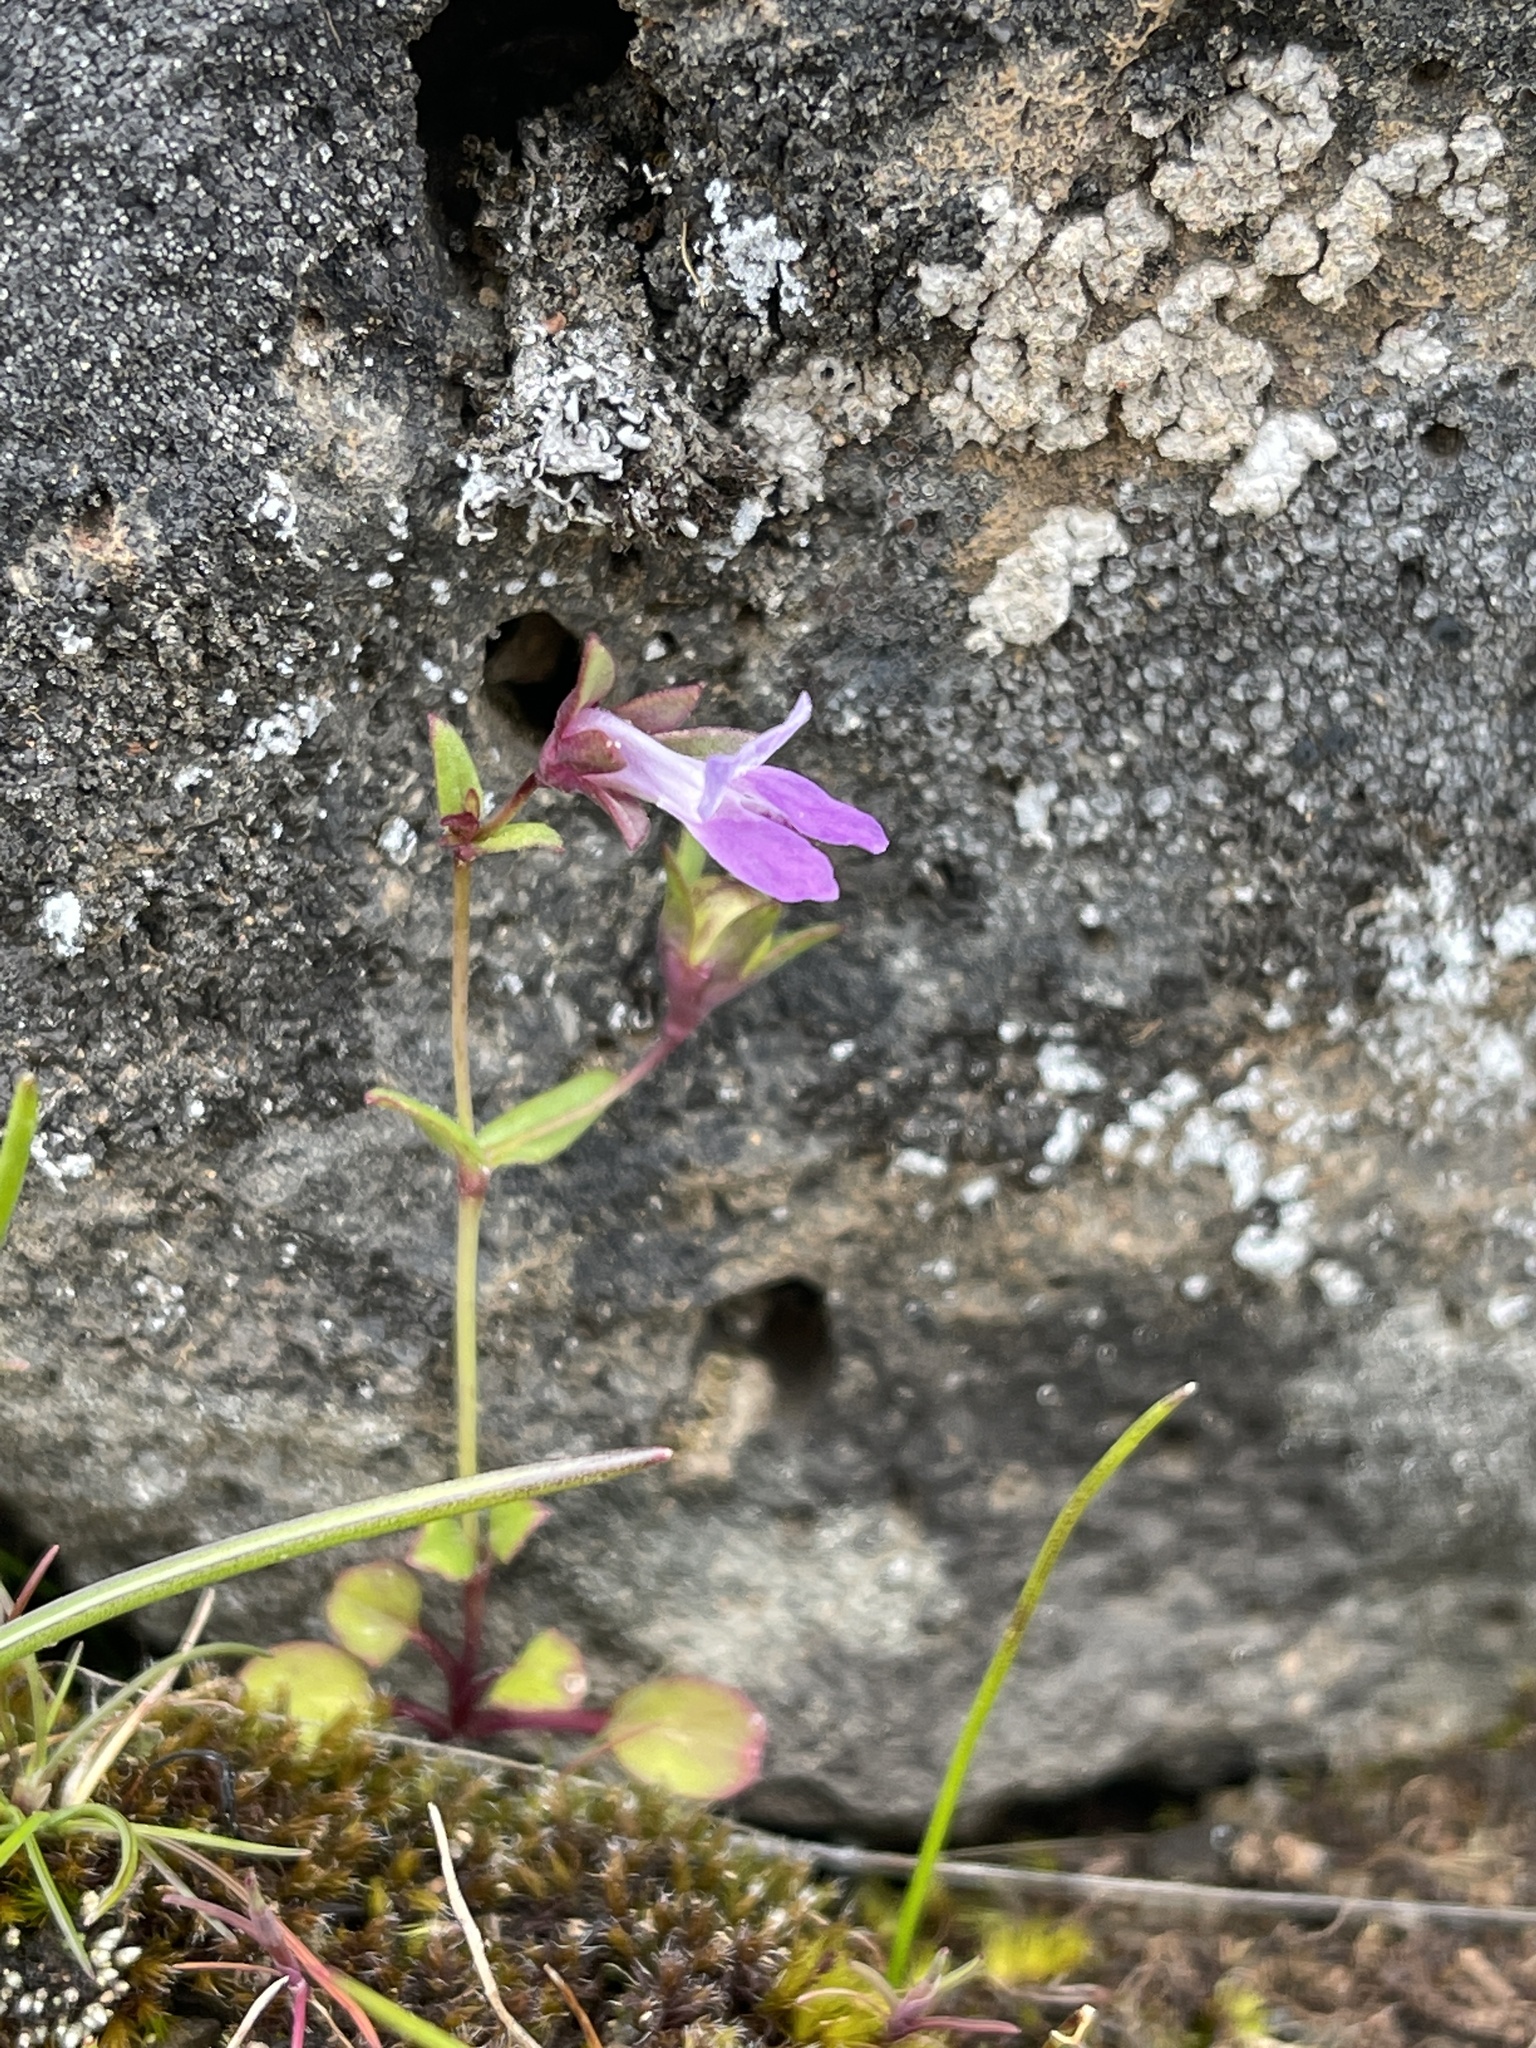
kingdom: Plantae
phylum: Tracheophyta
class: Magnoliopsida
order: Lamiales
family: Plantaginaceae
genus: Collinsia
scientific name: Collinsia sparsiflora
